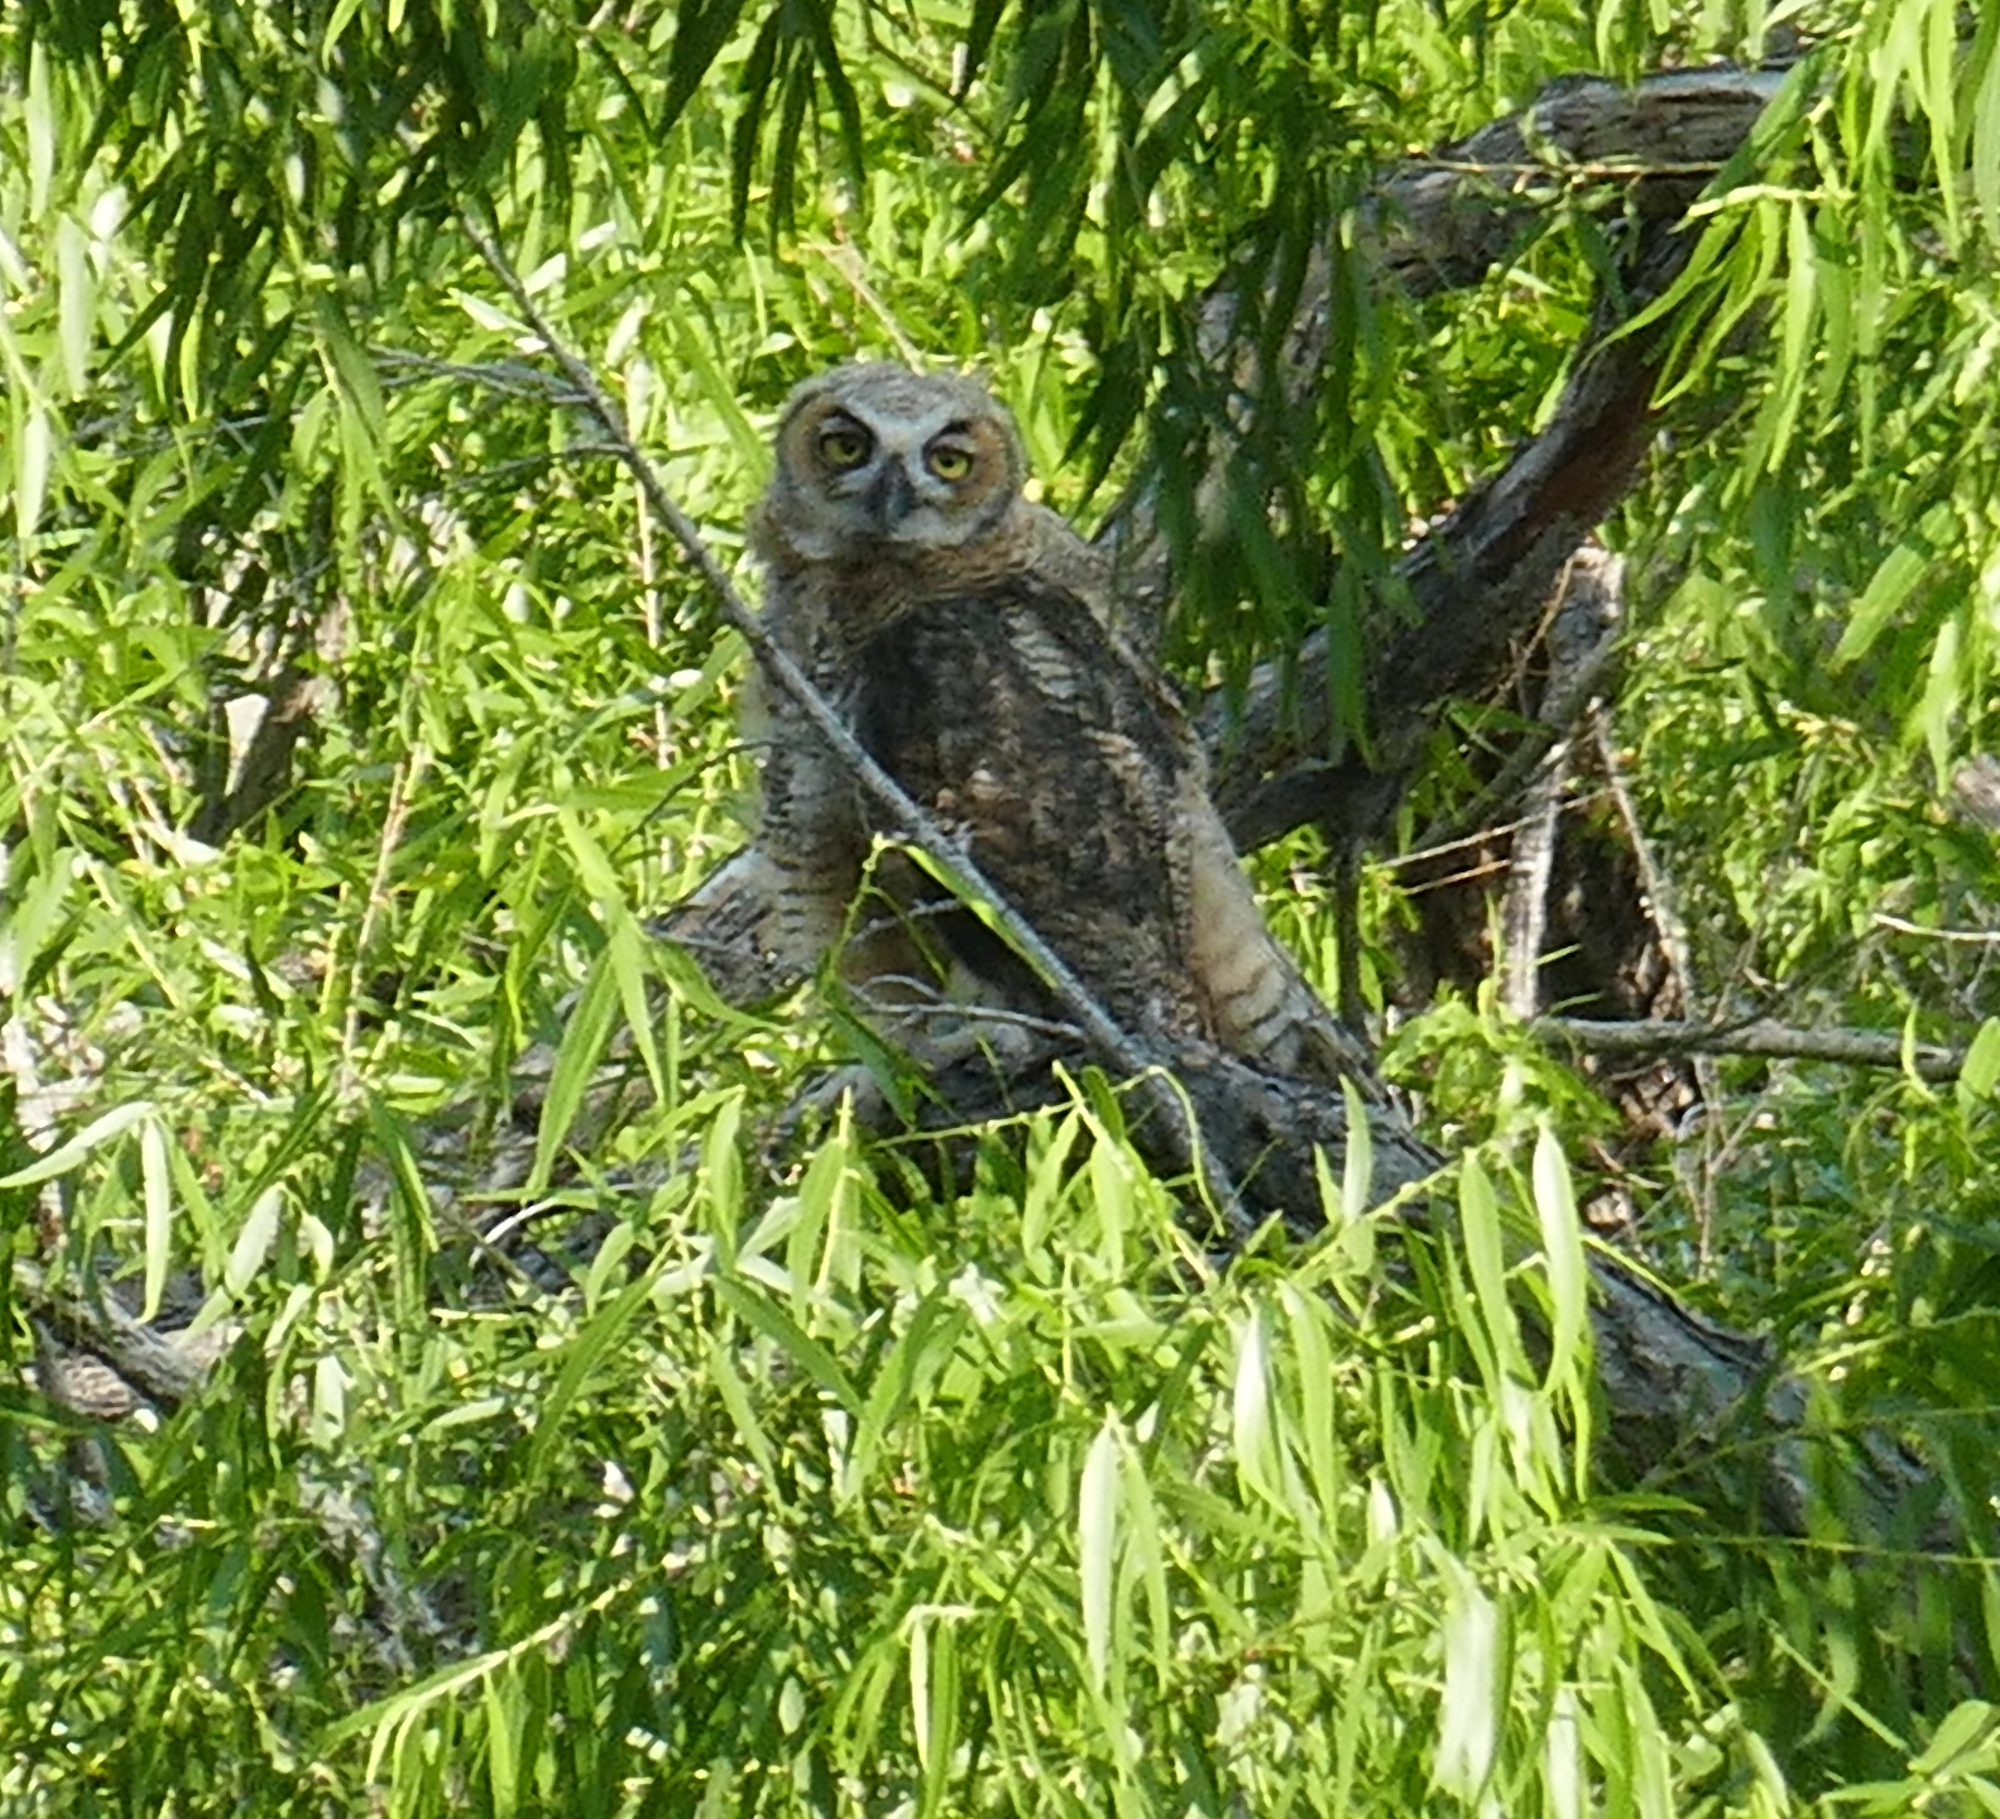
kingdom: Animalia
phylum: Chordata
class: Aves
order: Strigiformes
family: Strigidae
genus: Bubo
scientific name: Bubo virginianus
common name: Great horned owl
